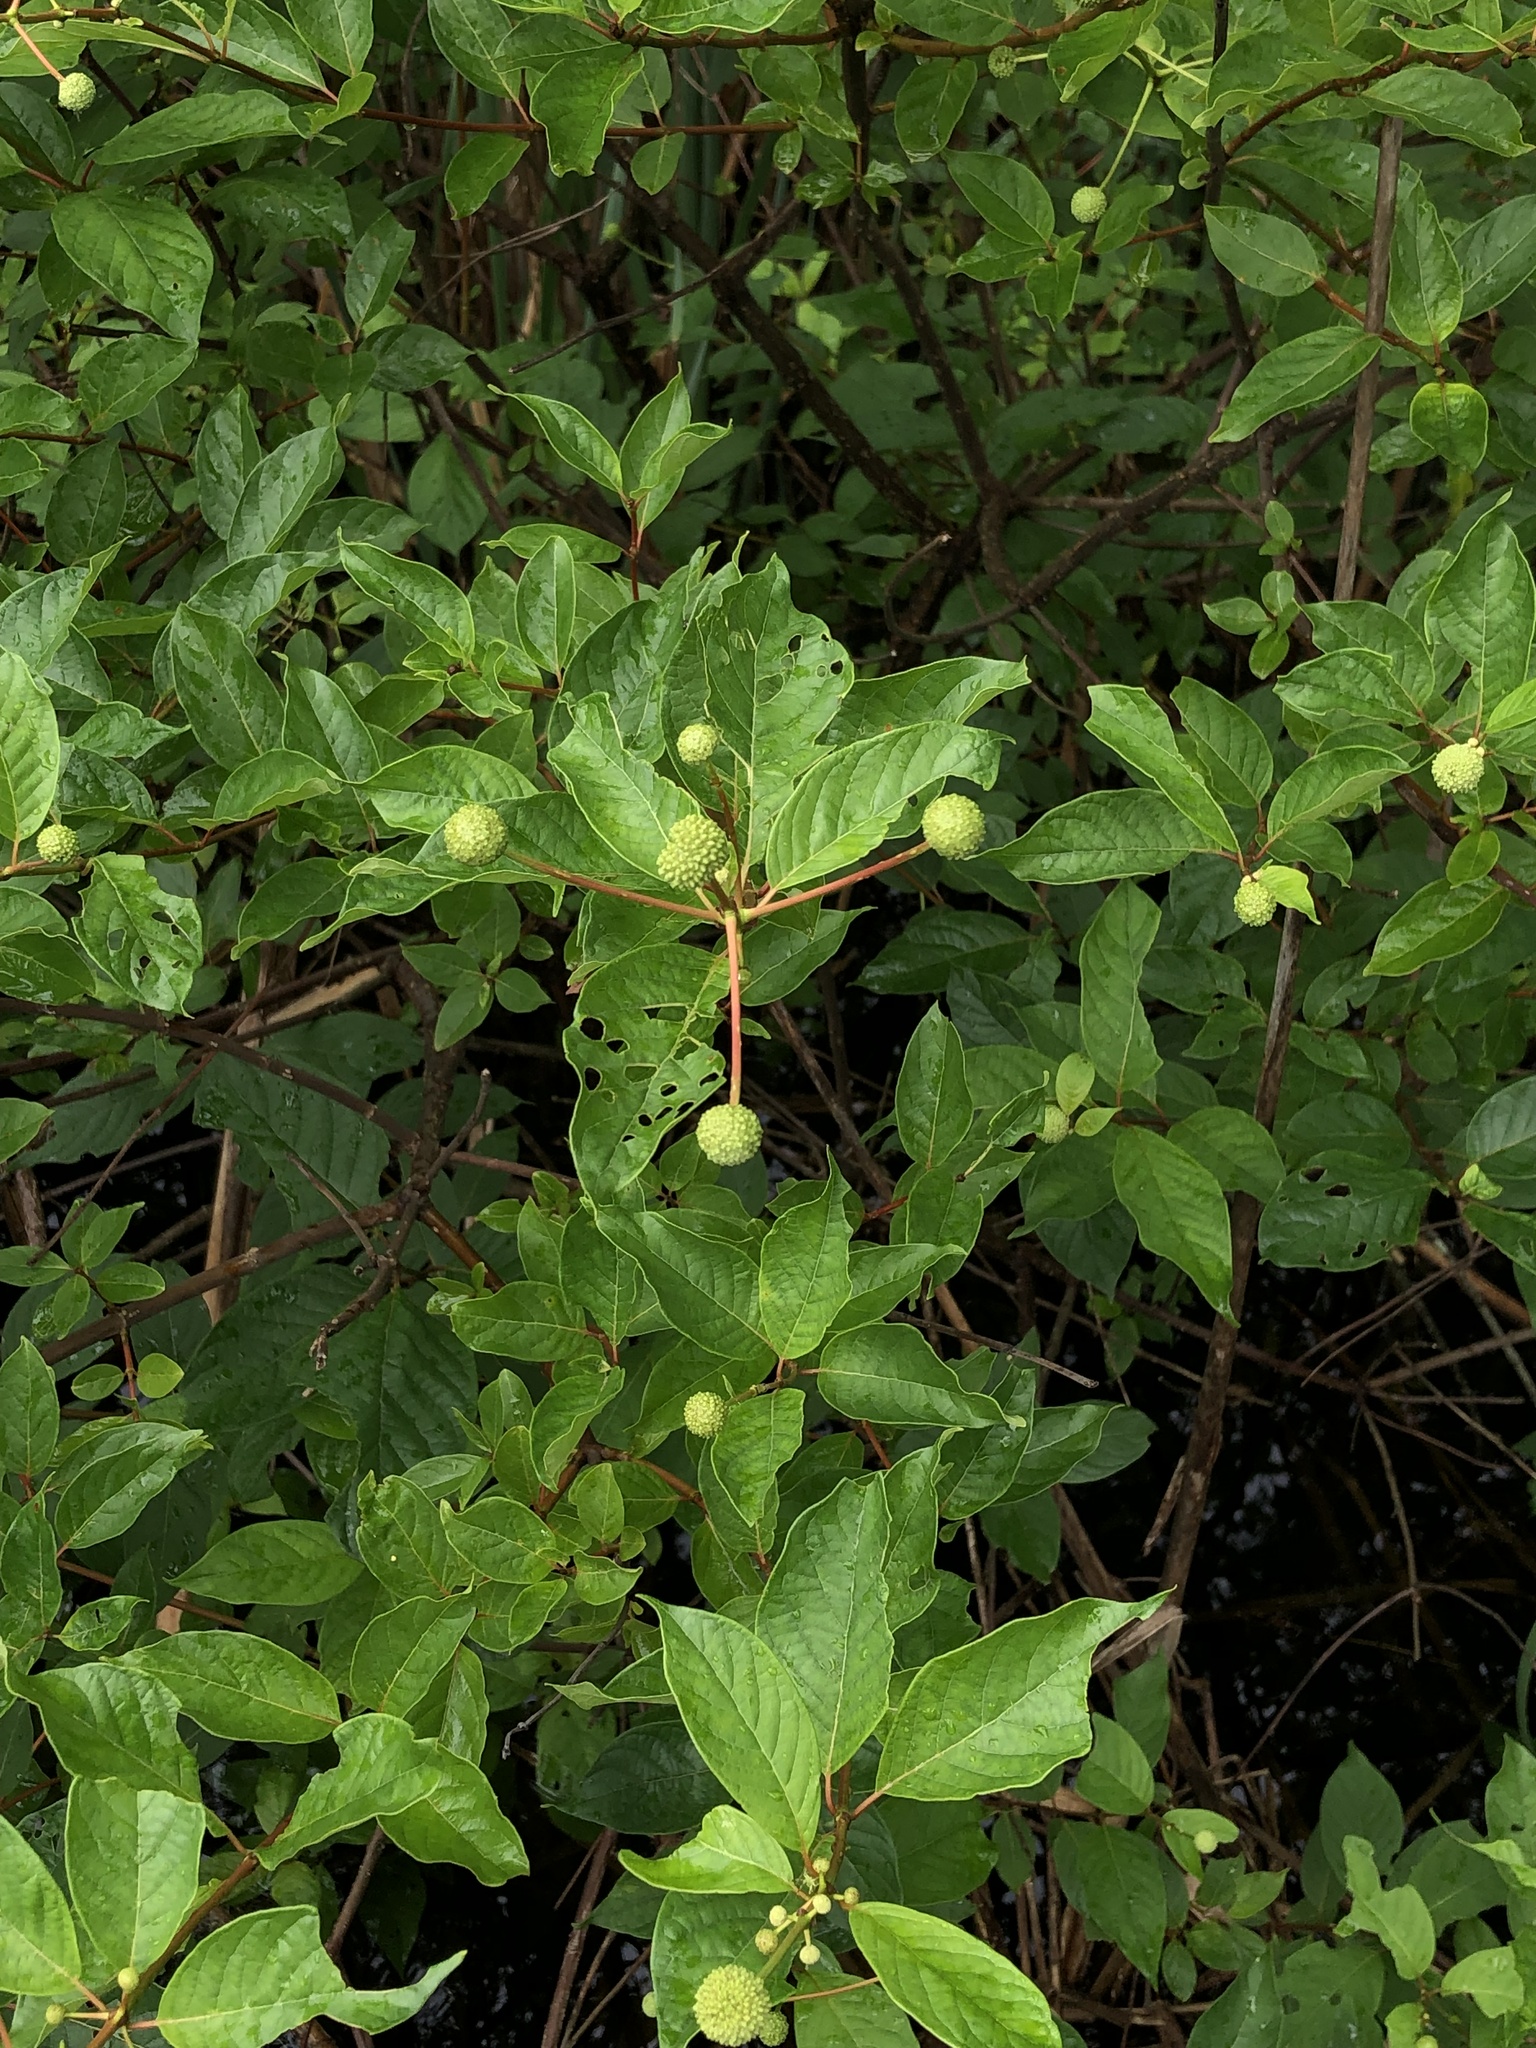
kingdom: Plantae
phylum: Tracheophyta
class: Magnoliopsida
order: Gentianales
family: Rubiaceae
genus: Cephalanthus
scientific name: Cephalanthus occidentalis
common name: Button-willow
